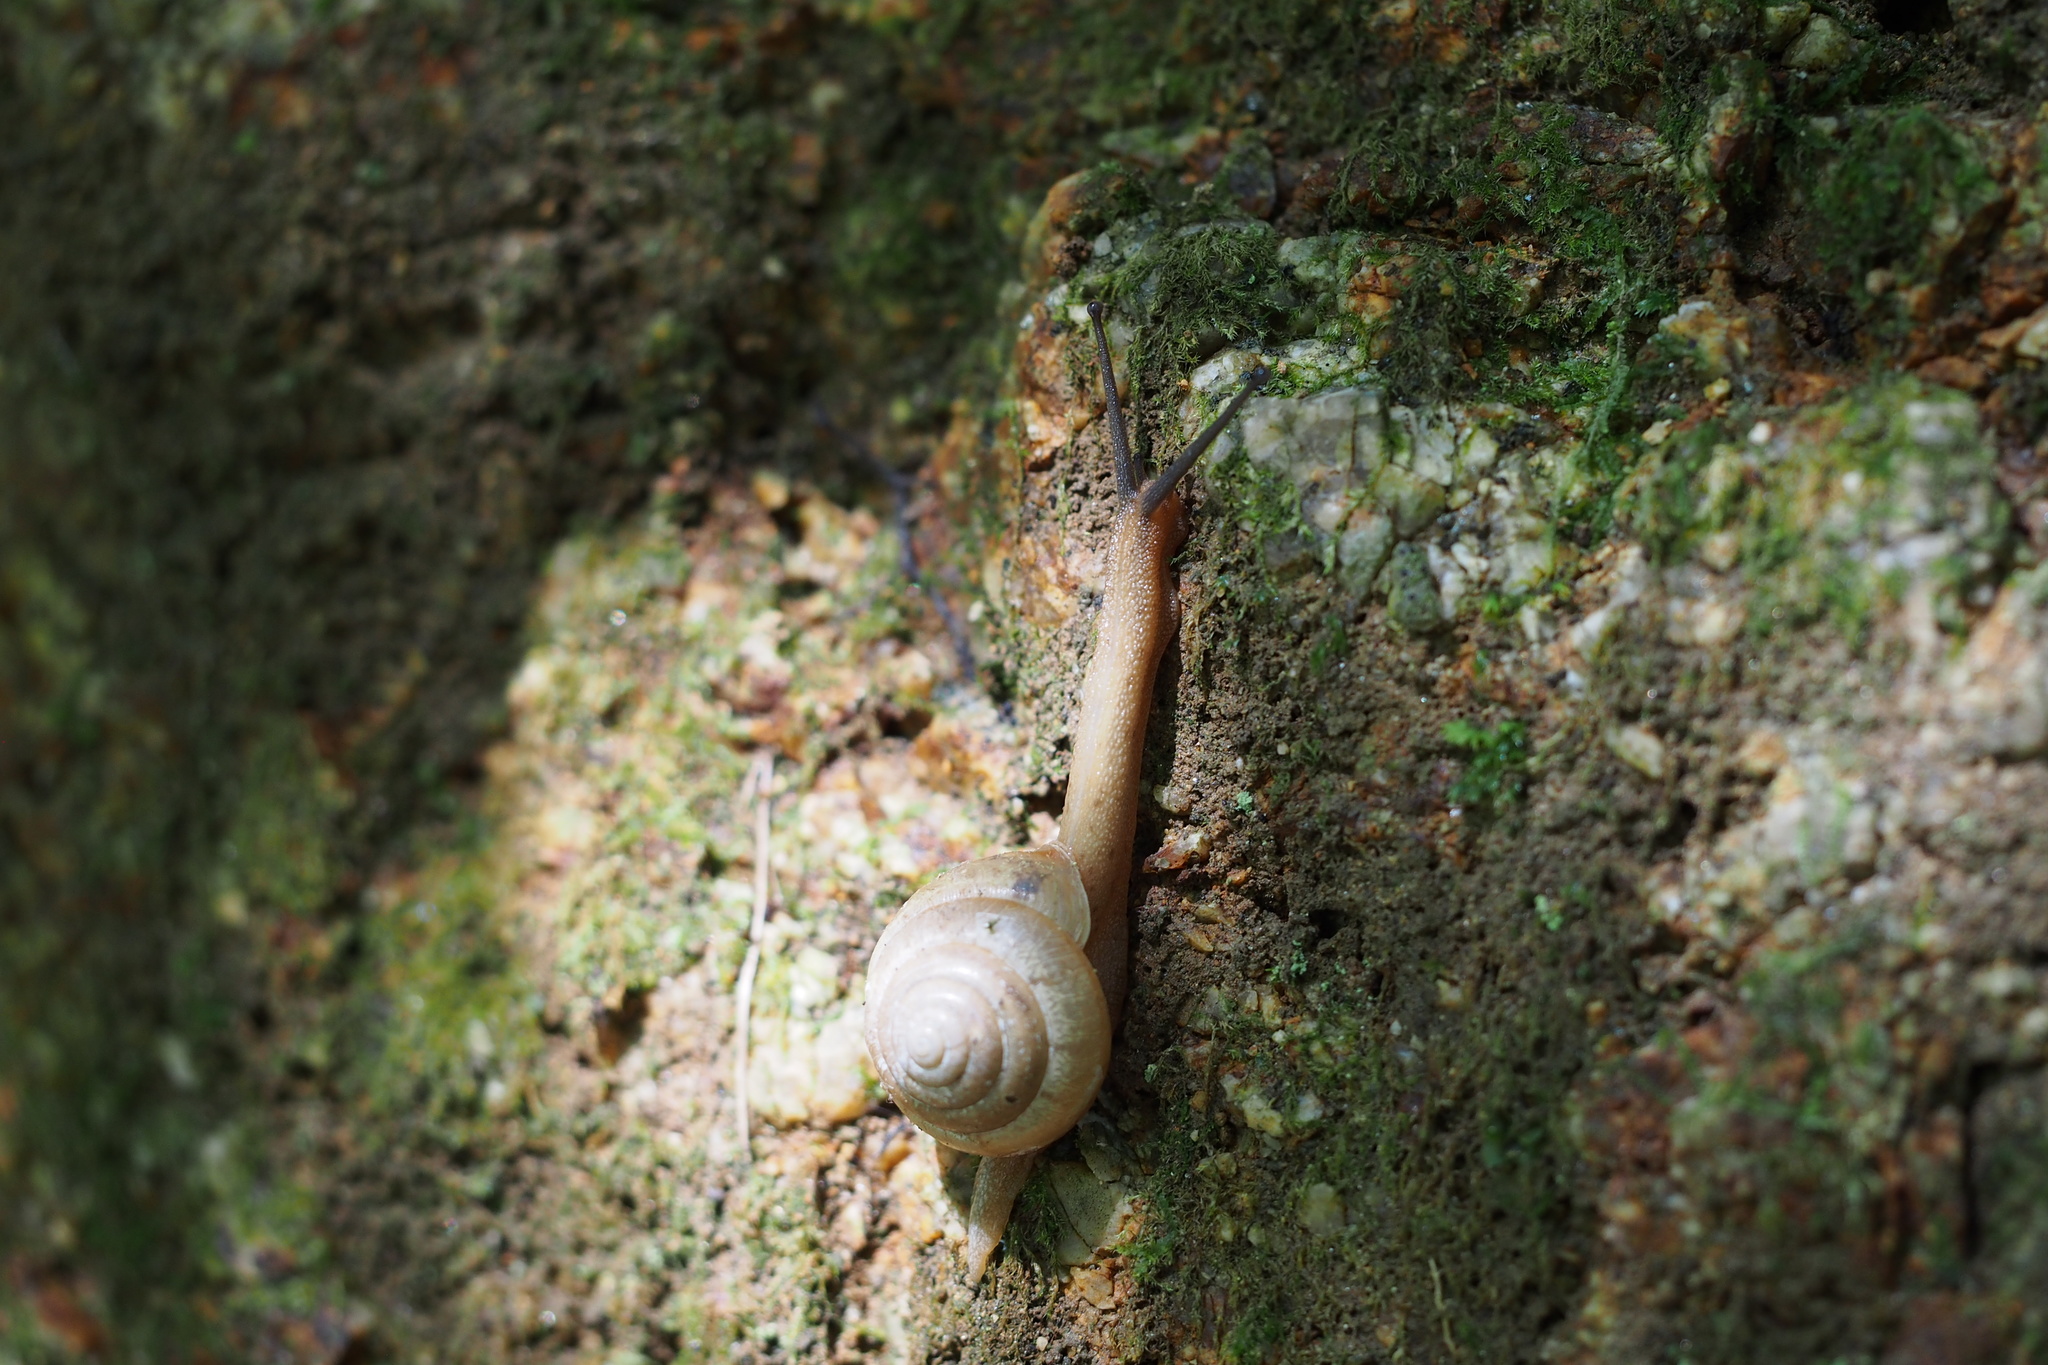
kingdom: Animalia
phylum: Mollusca
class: Gastropoda
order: Stylommatophora
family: Camaenidae
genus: Satsuma
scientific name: Satsuma japonica
